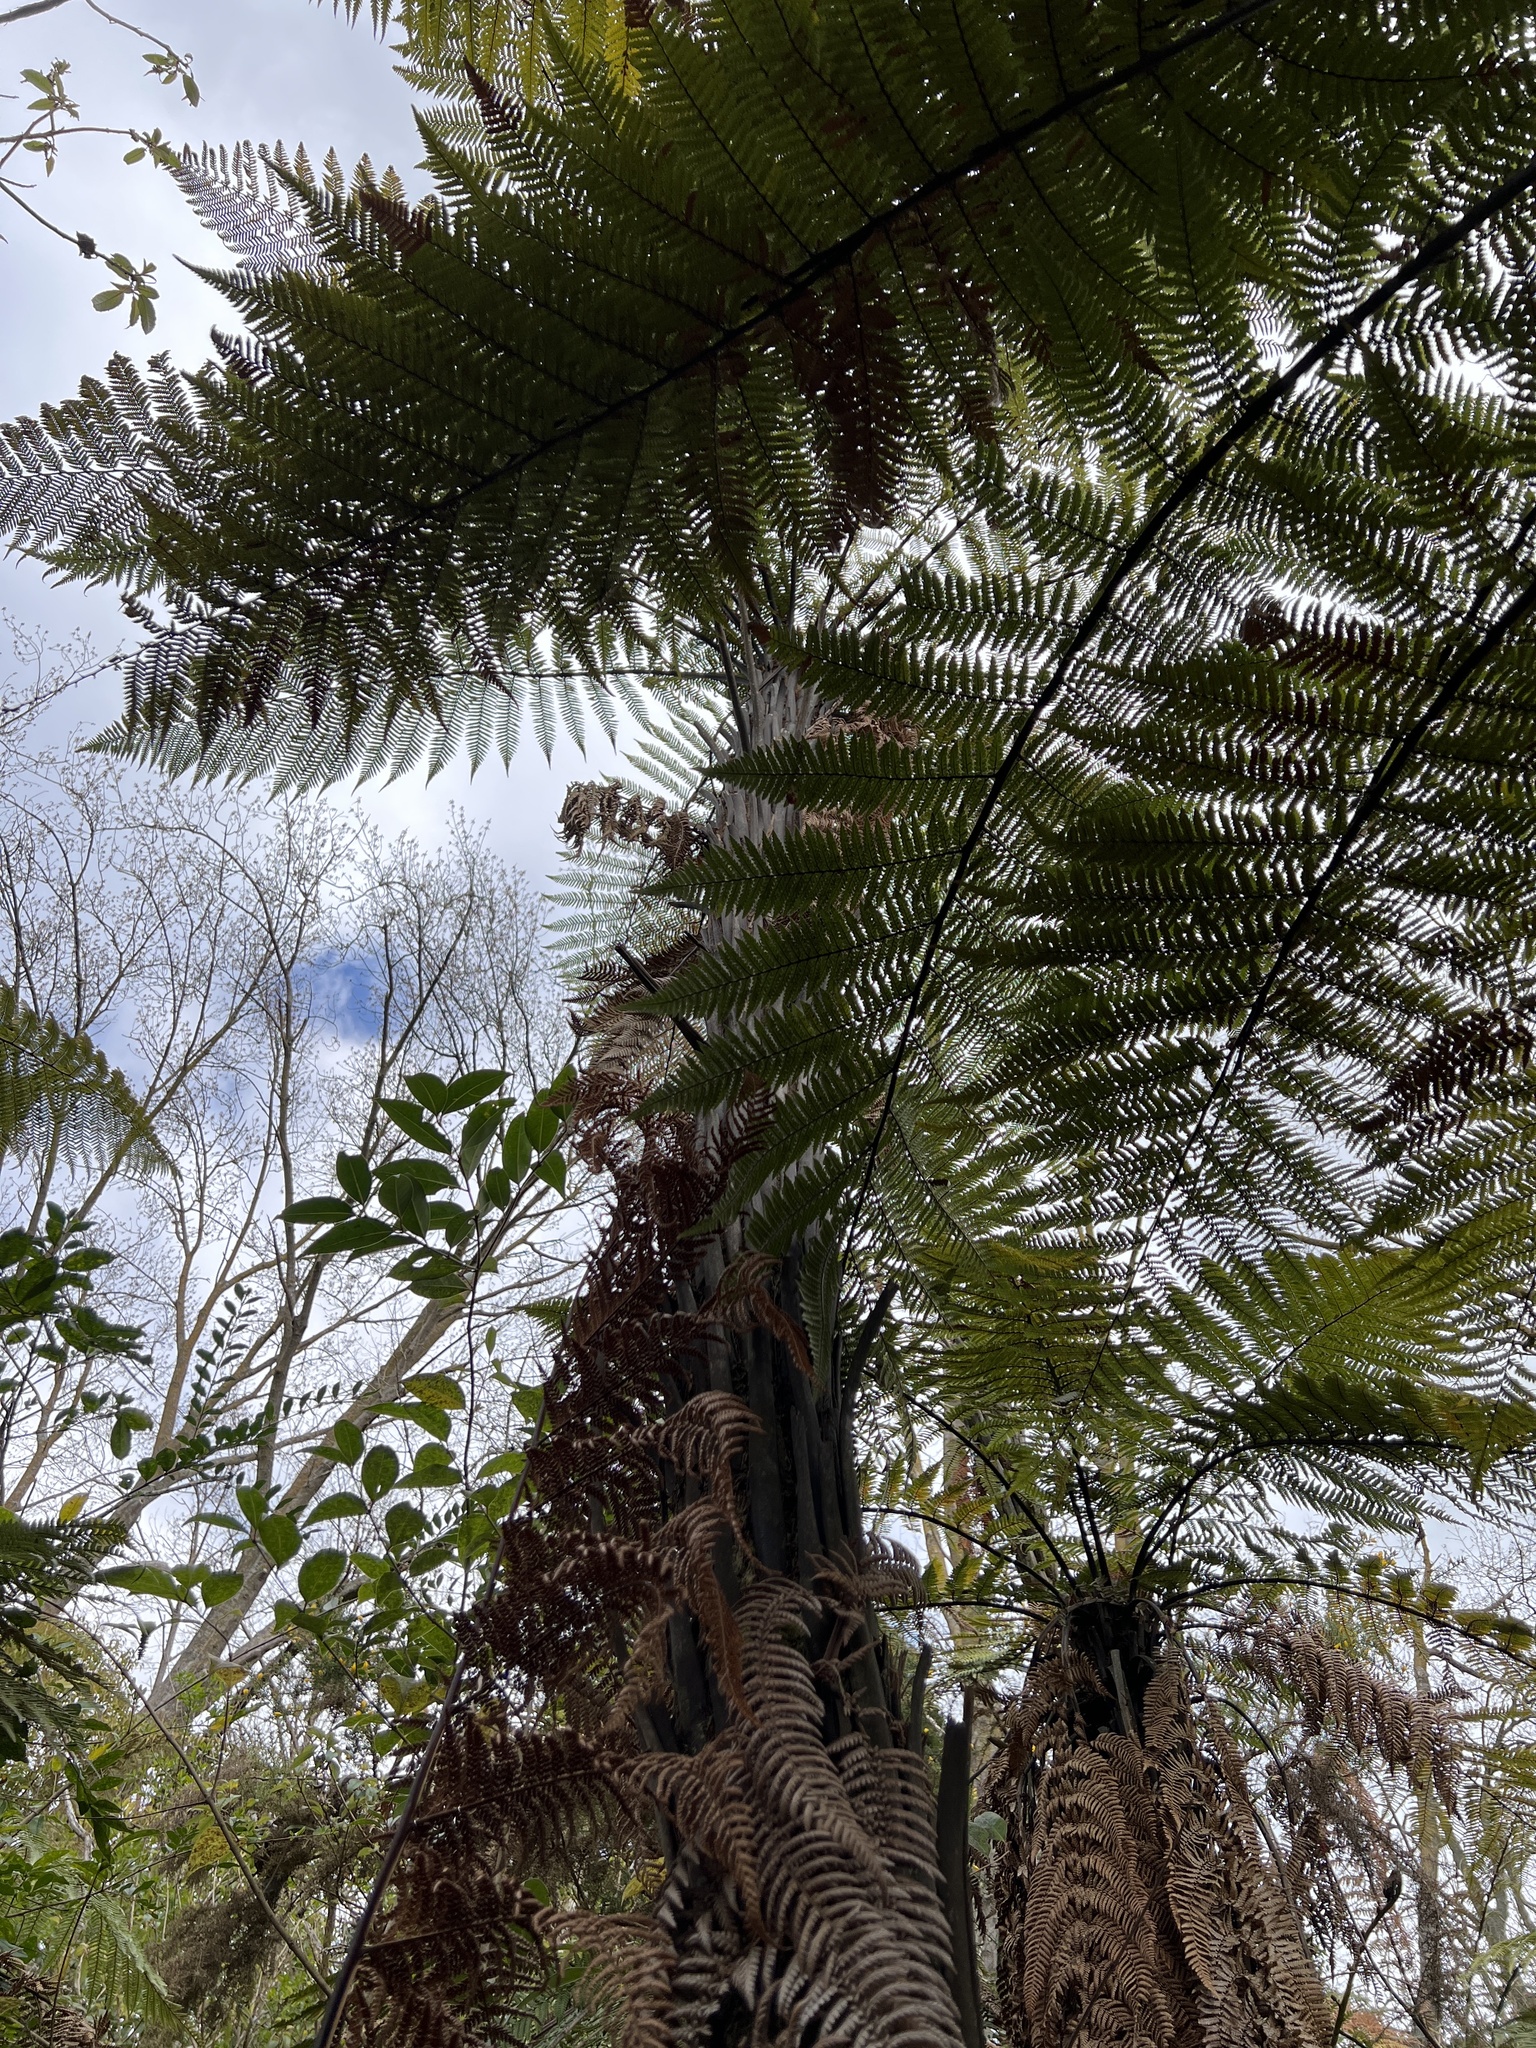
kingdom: Plantae
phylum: Tracheophyta
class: Polypodiopsida
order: Cyatheales
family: Dicksoniaceae
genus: Dicksonia
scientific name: Dicksonia squarrosa
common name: Hard treefern
